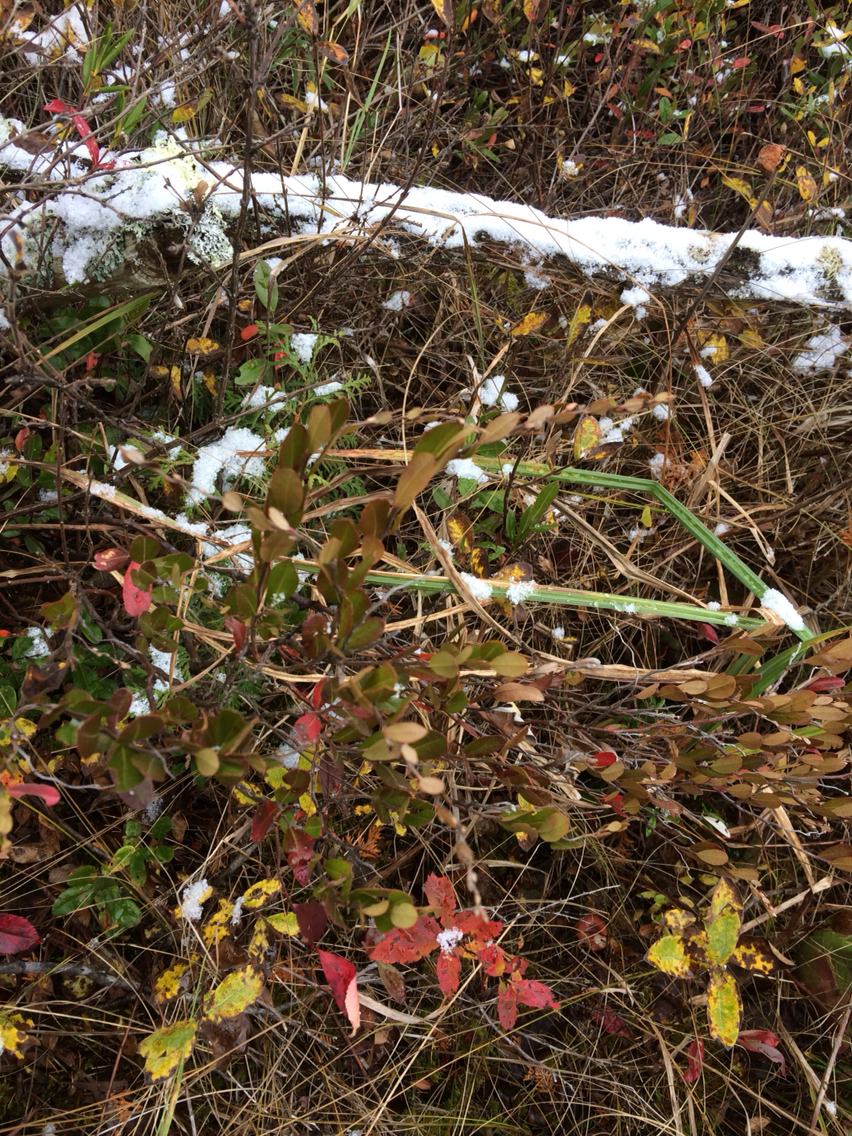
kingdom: Plantae
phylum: Tracheophyta
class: Magnoliopsida
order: Ericales
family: Ericaceae
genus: Chamaedaphne
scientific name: Chamaedaphne calyculata
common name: Leatherleaf
